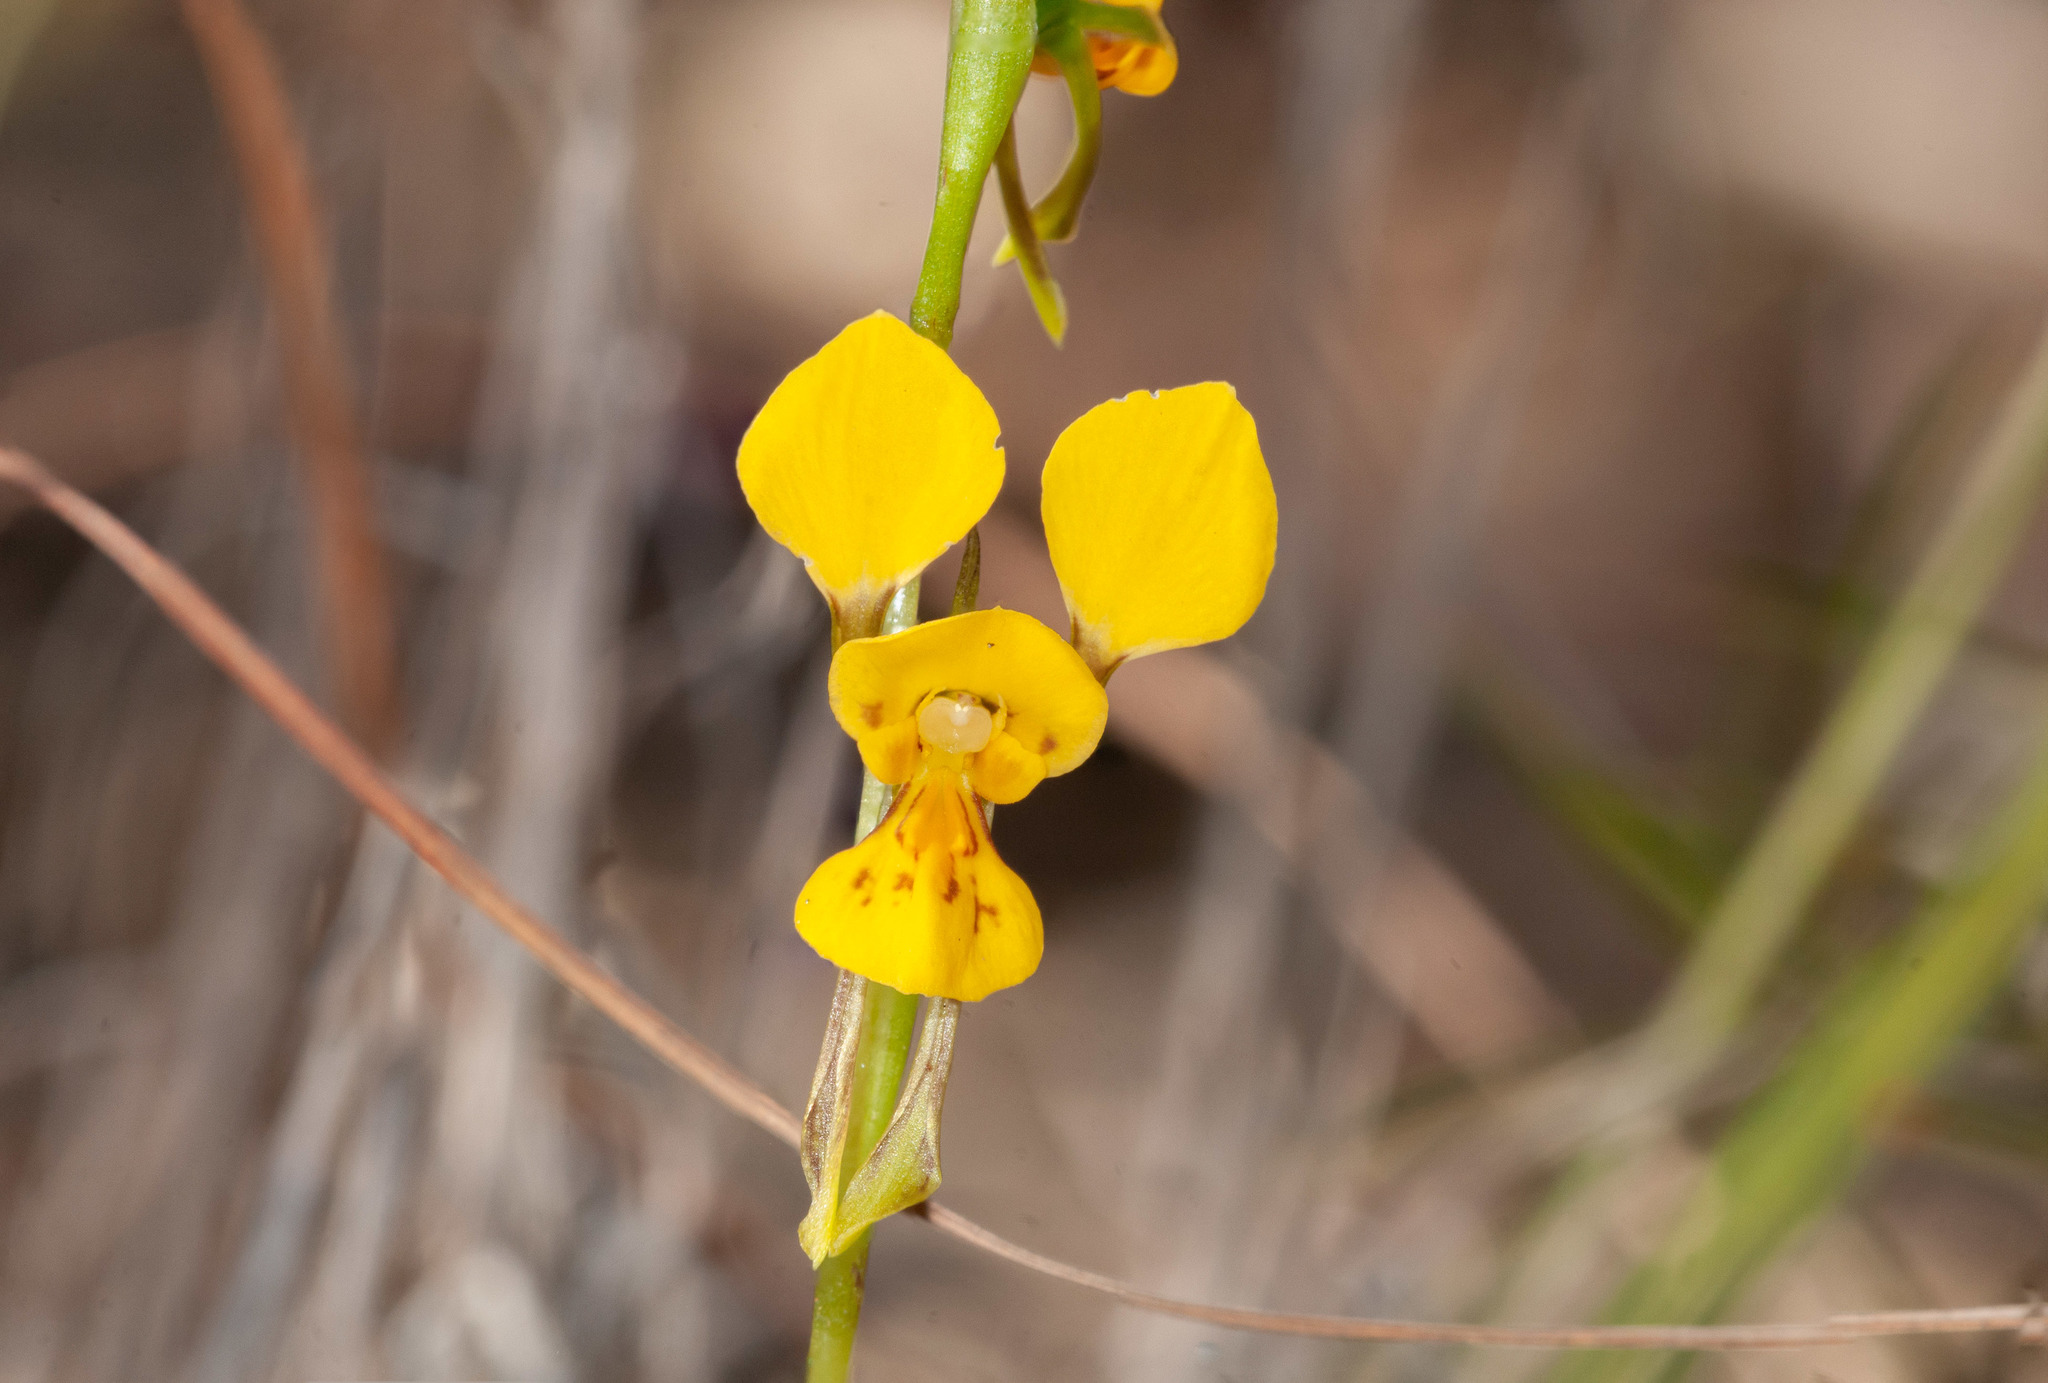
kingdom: Plantae
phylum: Tracheophyta
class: Liliopsida
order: Asparagales
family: Orchidaceae
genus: Diuris
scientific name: Diuris aurea
